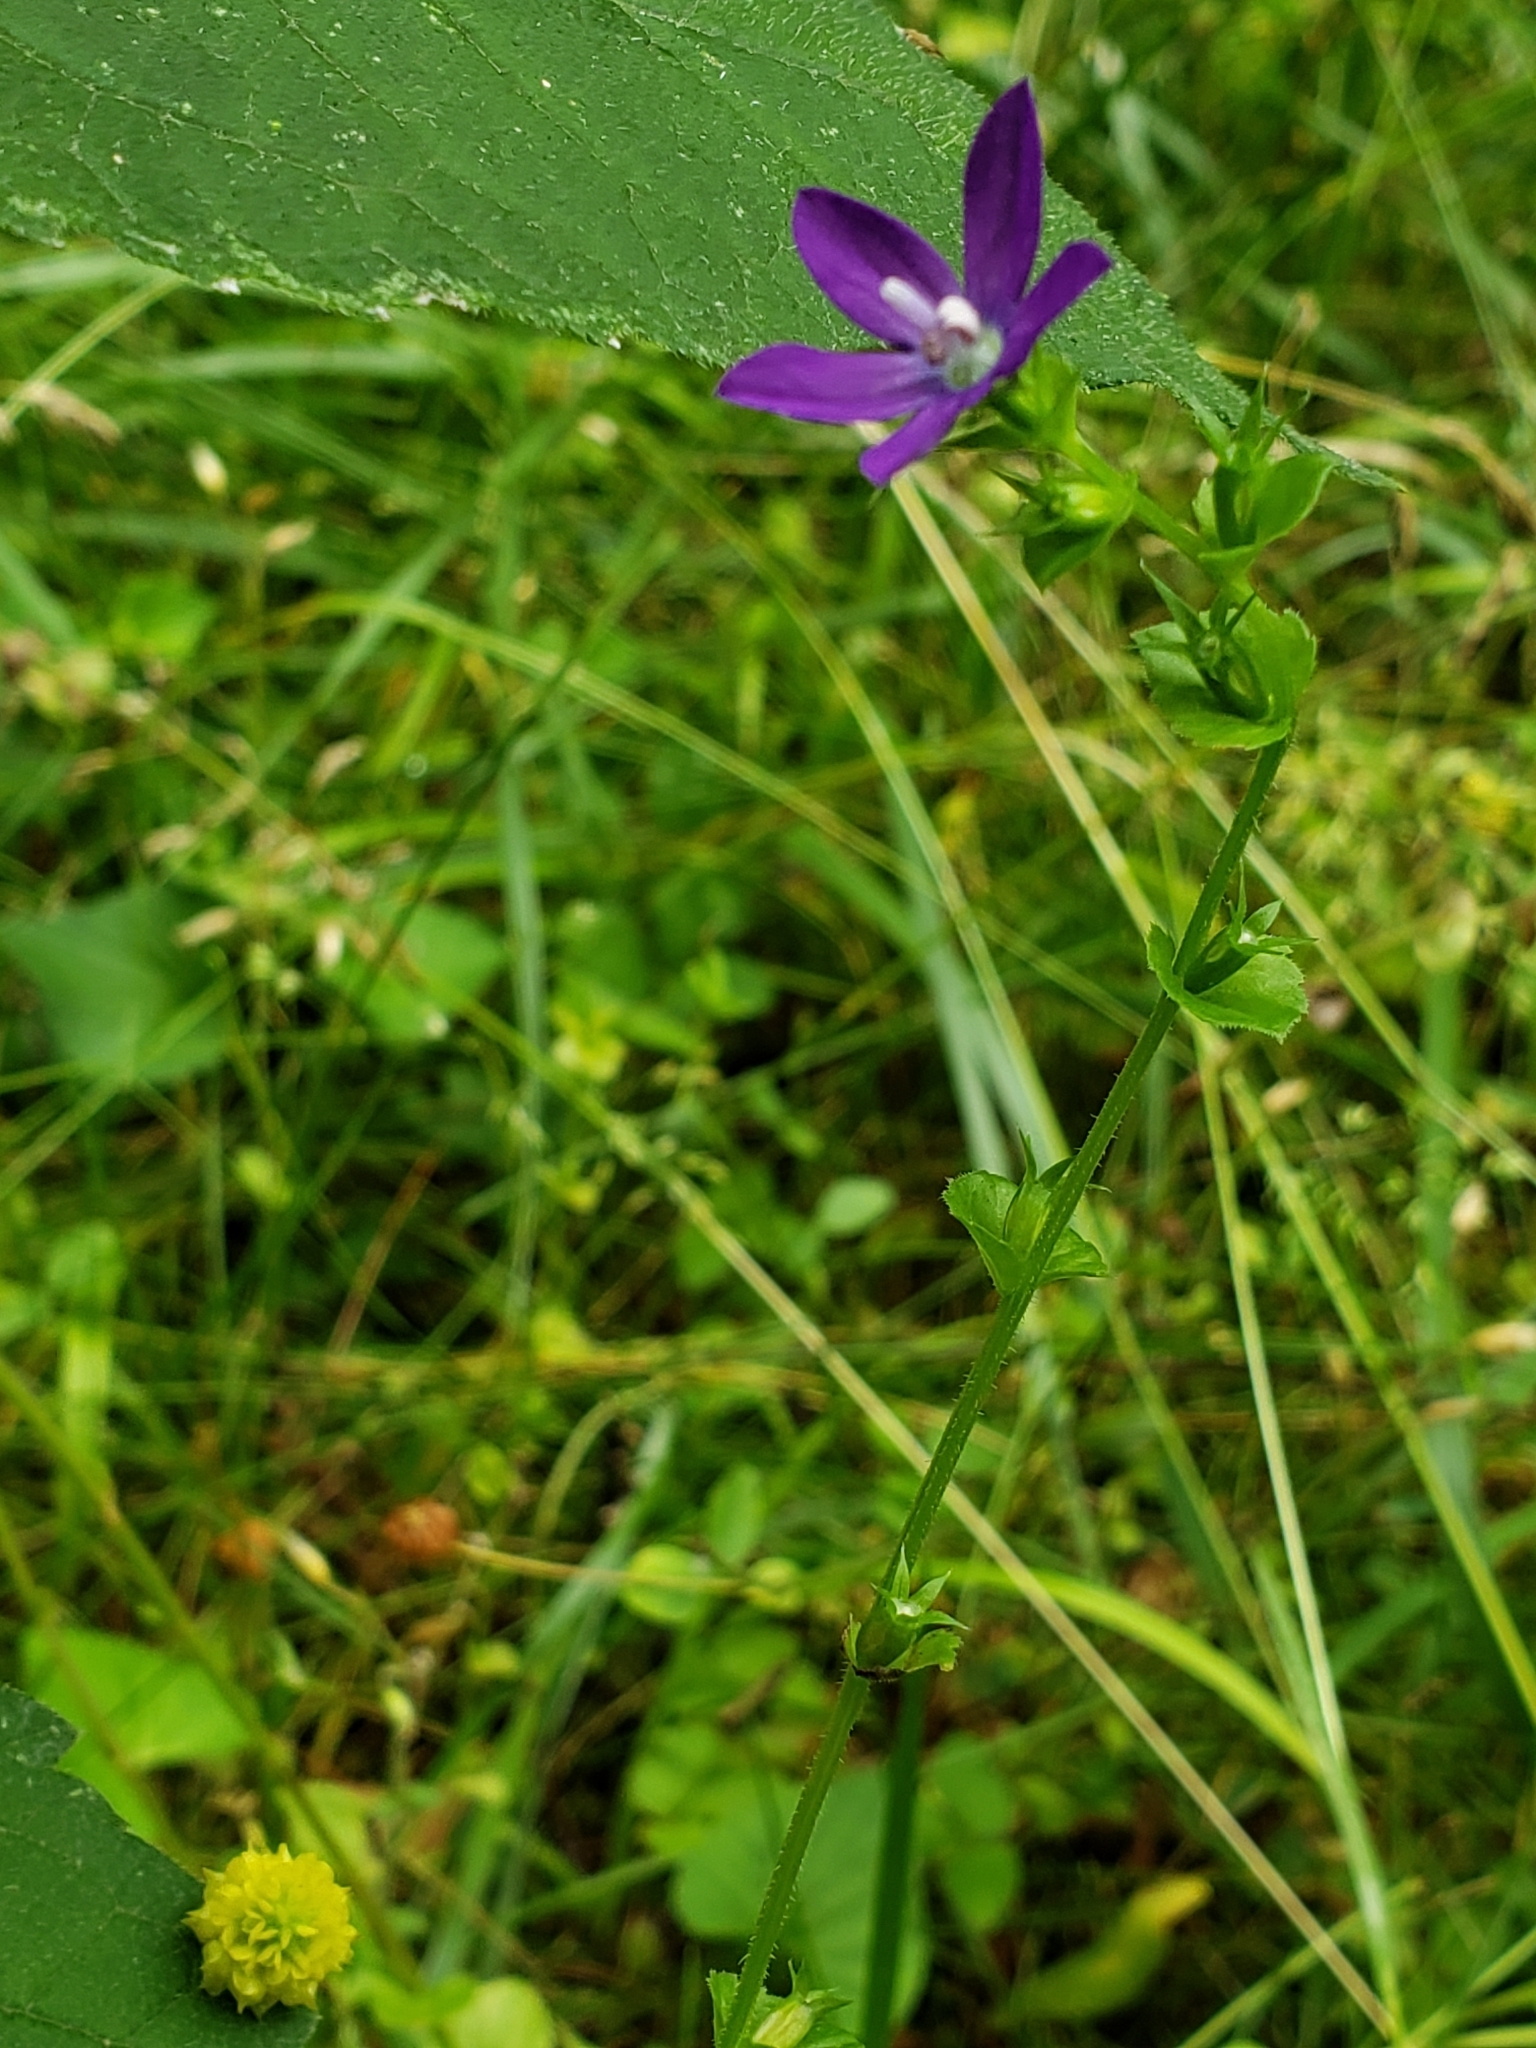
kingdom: Plantae
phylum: Tracheophyta
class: Magnoliopsida
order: Asterales
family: Campanulaceae
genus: Triodanis
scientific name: Triodanis perfoliata
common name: Clasping venus' looking-glass
